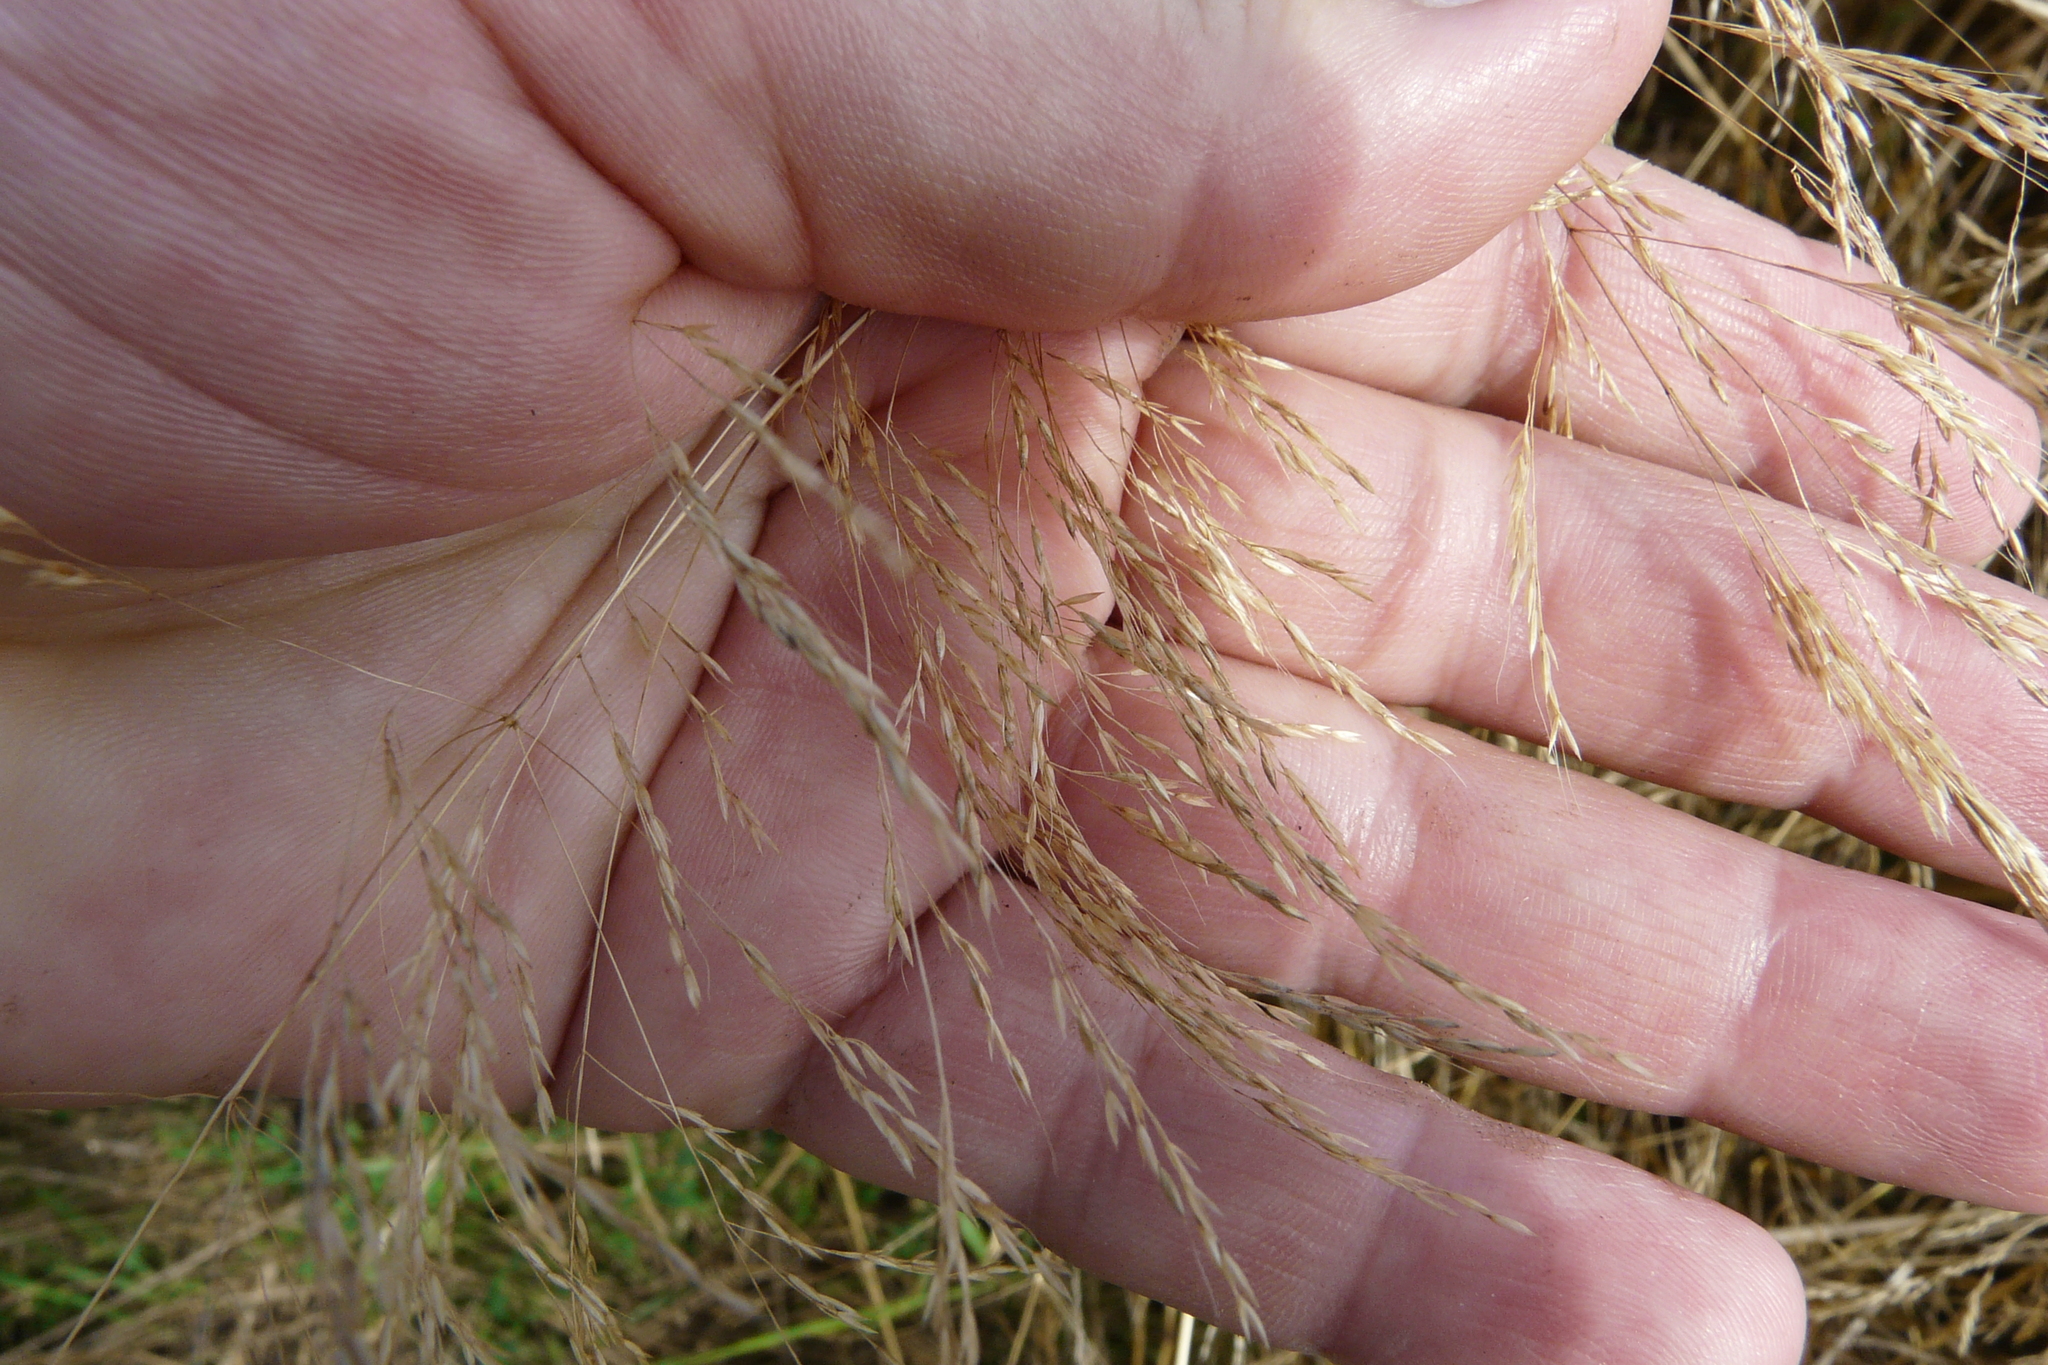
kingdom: Plantae
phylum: Tracheophyta
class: Liliopsida
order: Poales
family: Poaceae
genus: Apera
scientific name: Apera spica-venti
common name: Loose silky-bent
